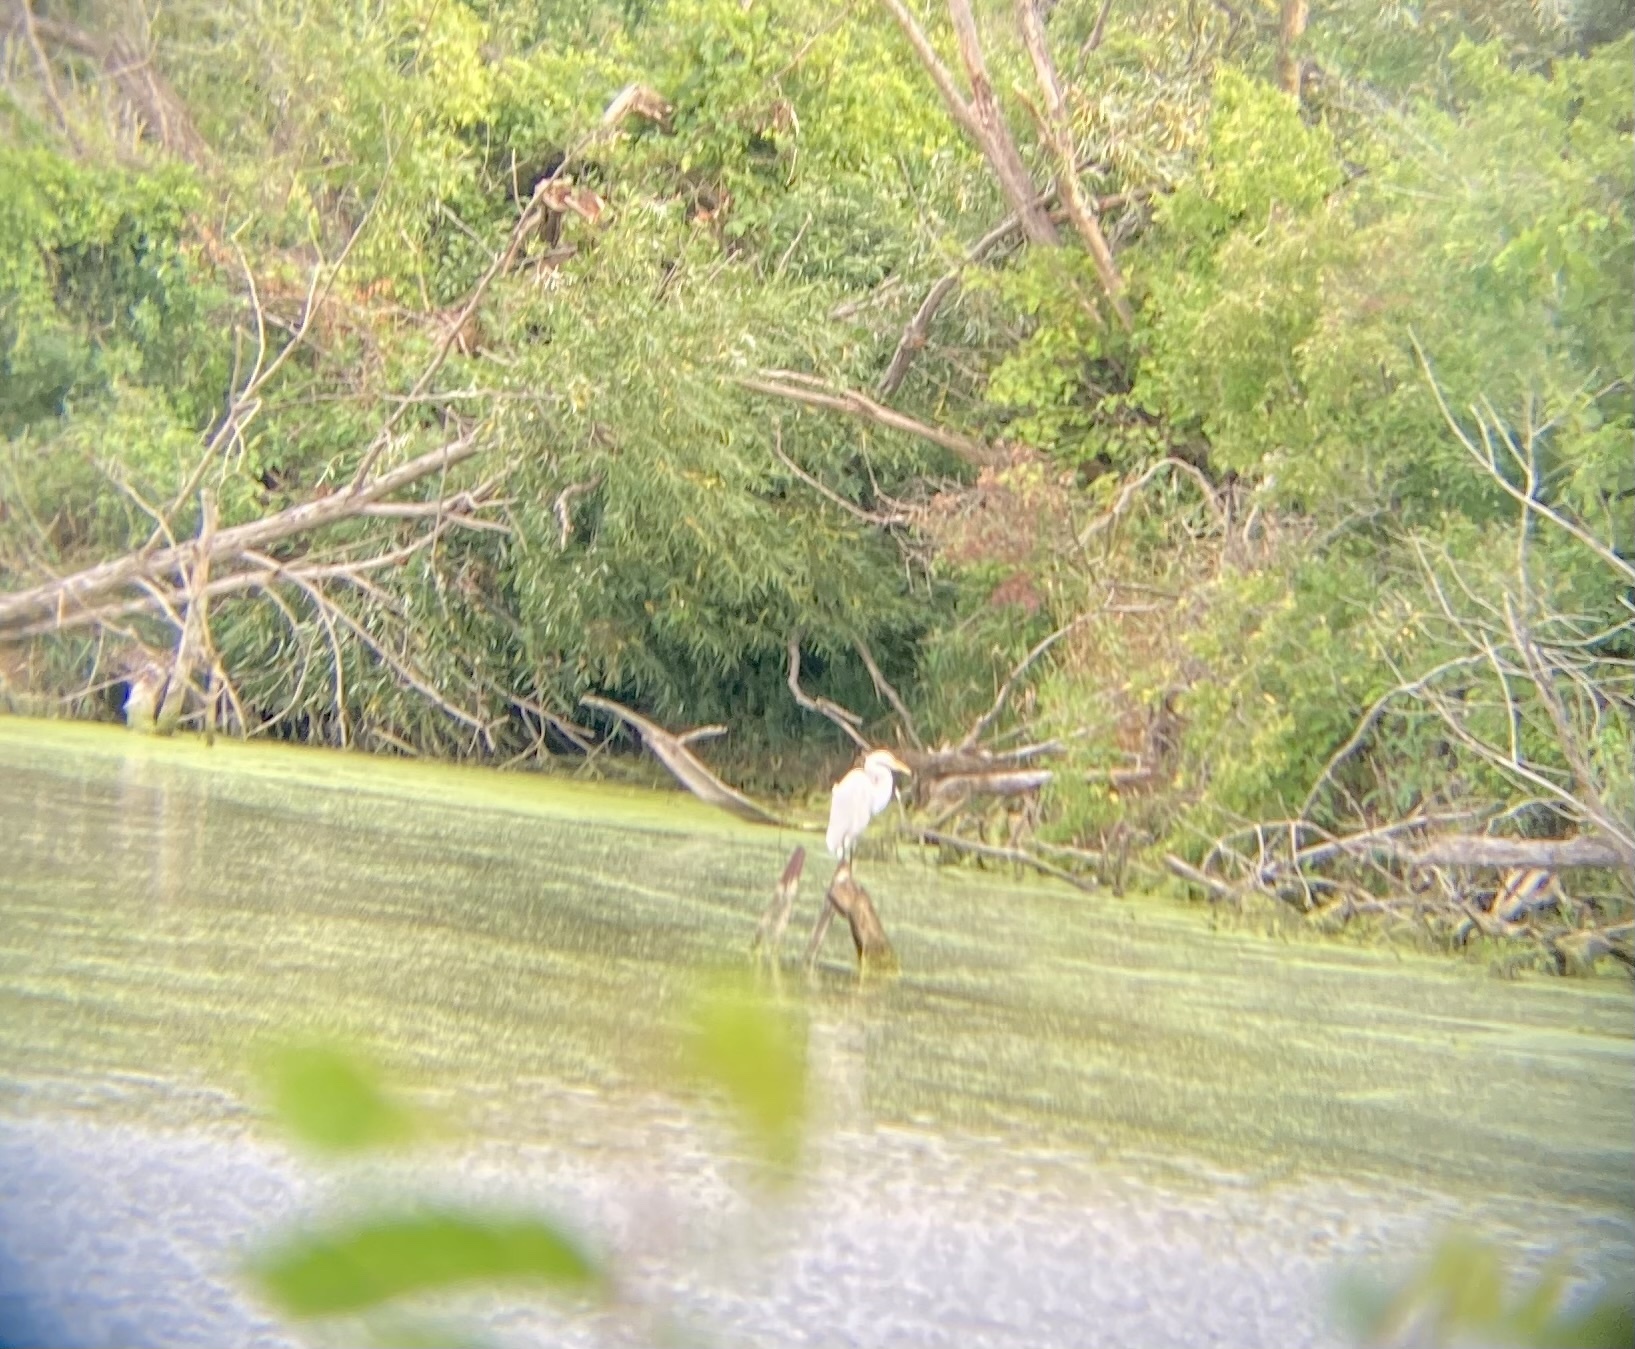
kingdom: Animalia
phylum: Chordata
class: Aves
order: Pelecaniformes
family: Ardeidae
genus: Ardea
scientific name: Ardea alba
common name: Great egret
